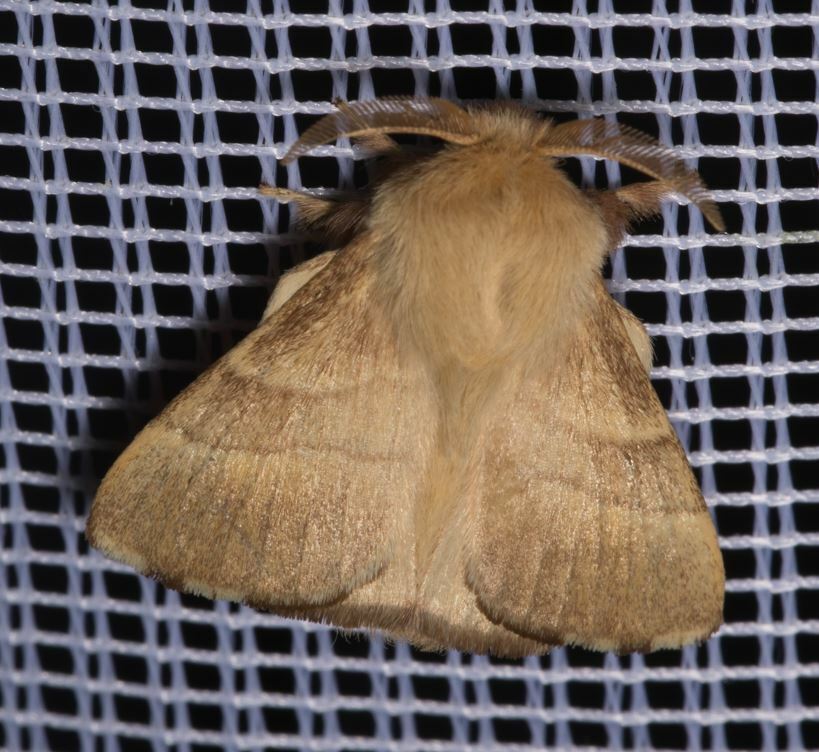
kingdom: Animalia
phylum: Arthropoda
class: Insecta
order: Lepidoptera
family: Lasiocampidae
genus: Malacosoma
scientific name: Malacosoma neustria
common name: The lackey
